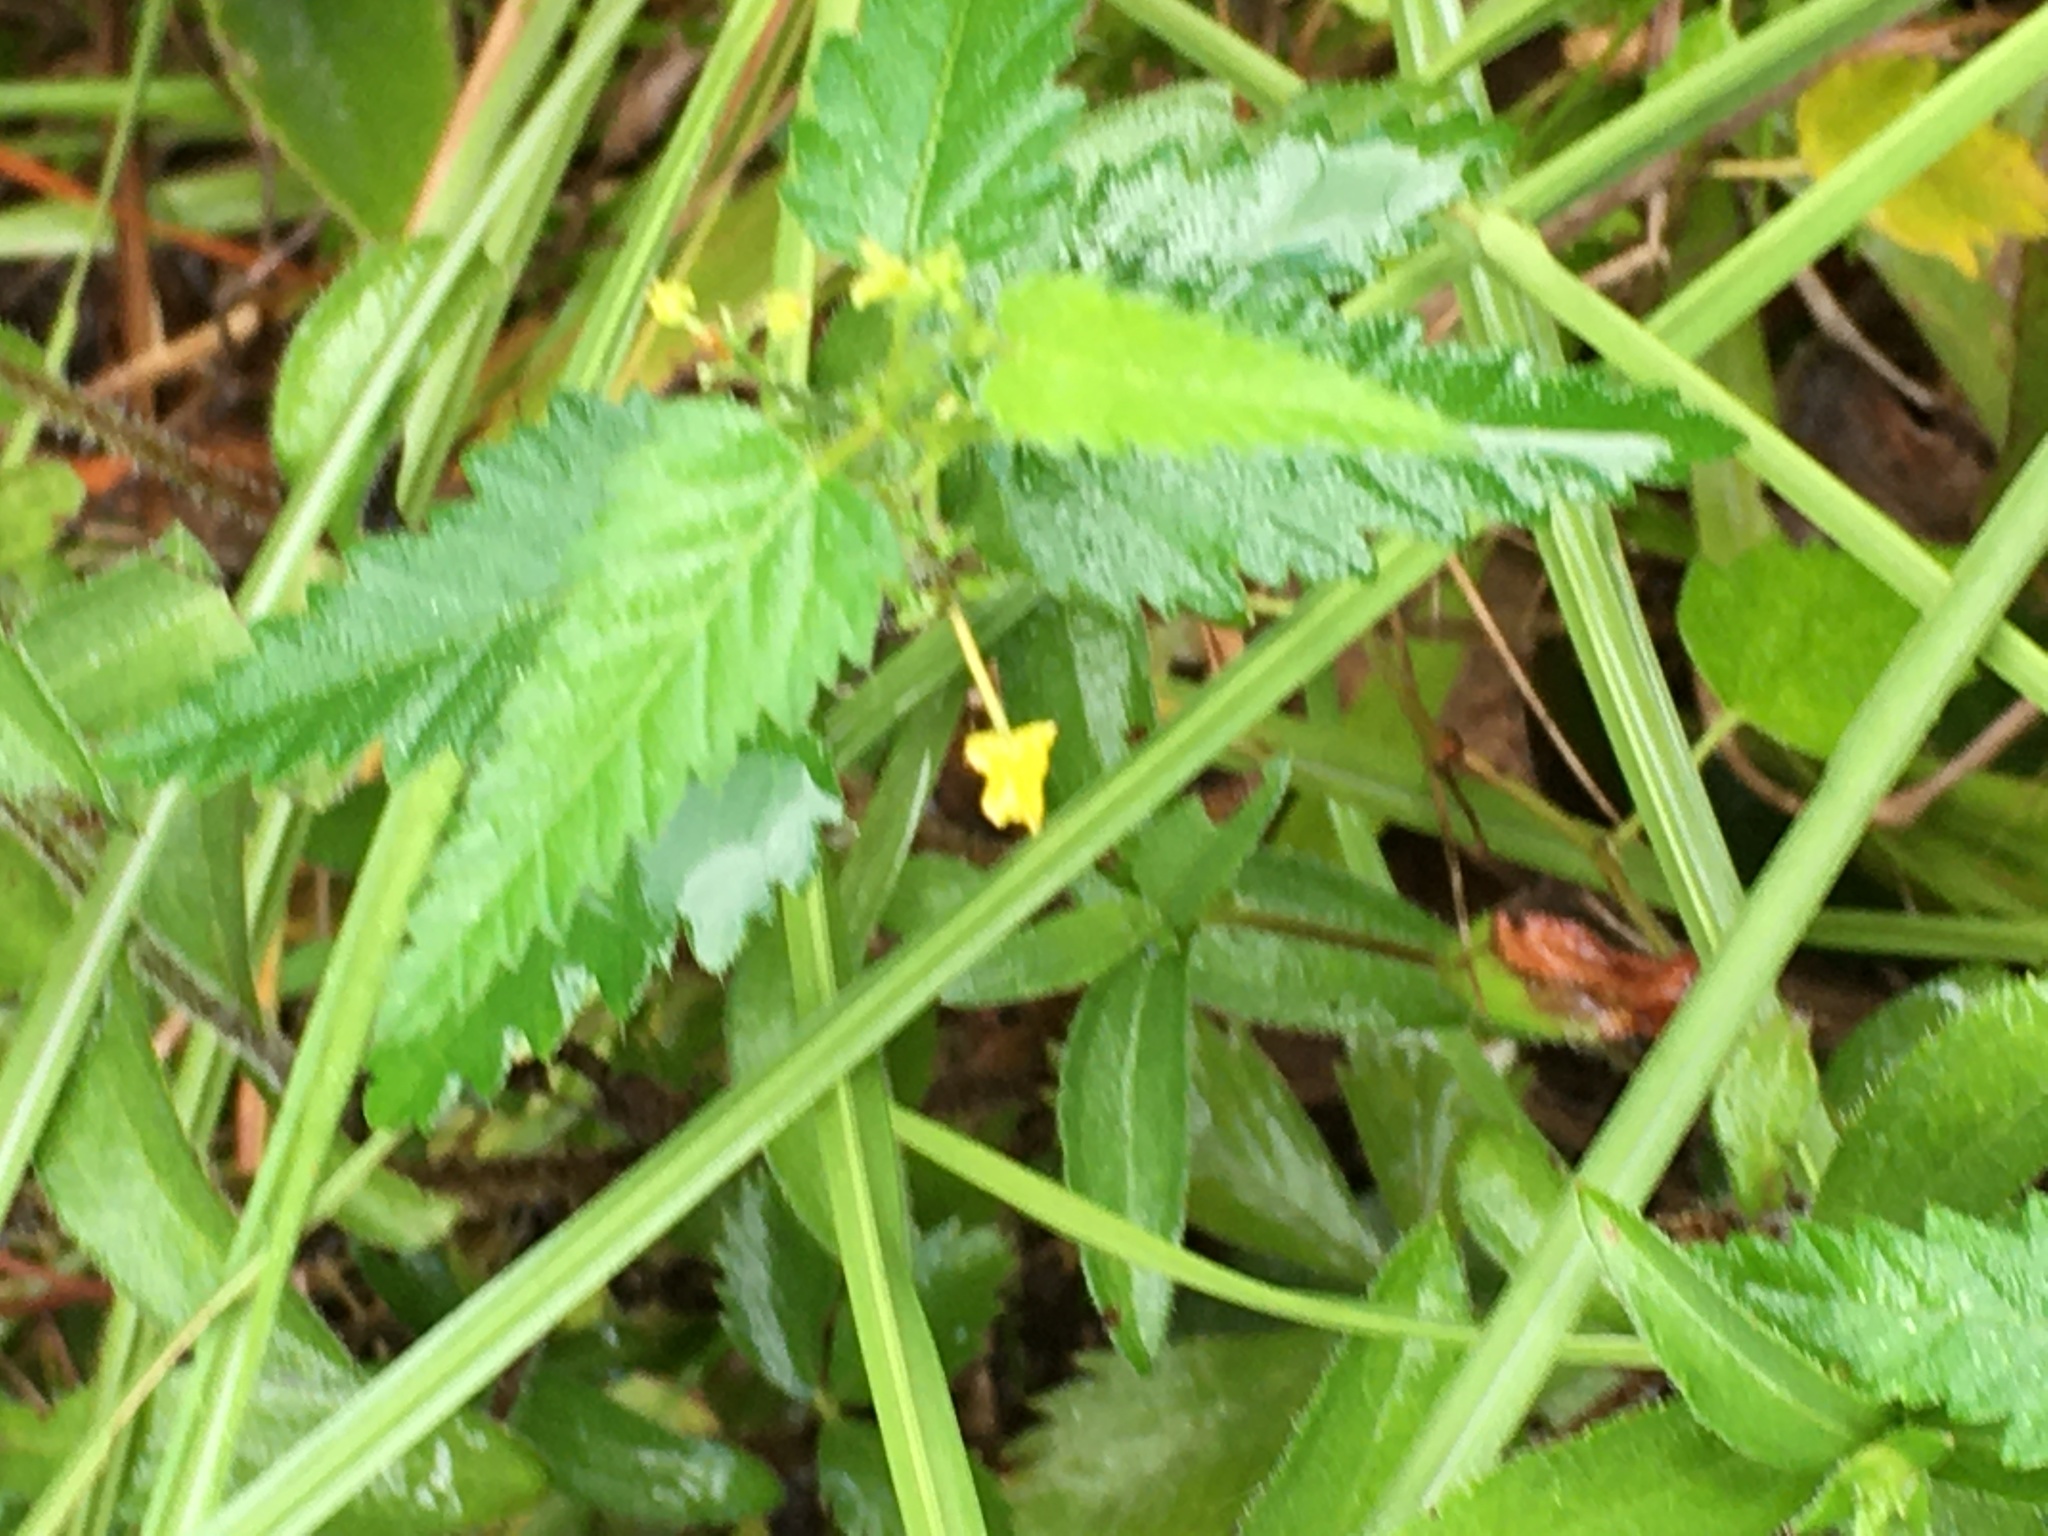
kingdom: Plantae
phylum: Tracheophyta
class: Magnoliopsida
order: Malpighiales
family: Euphorbiaceae
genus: Tragia
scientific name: Tragia urticifolia
